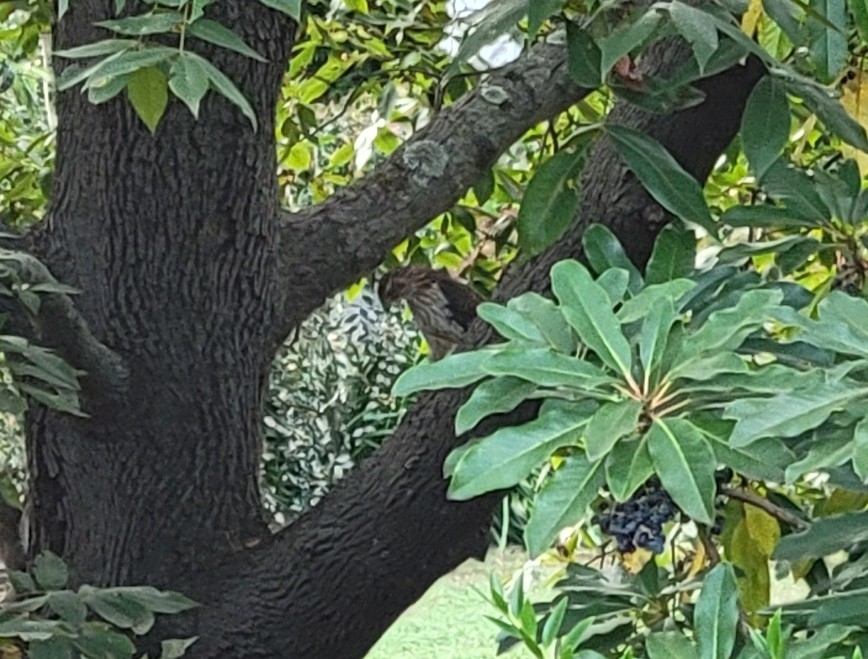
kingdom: Animalia
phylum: Chordata
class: Aves
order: Accipitriformes
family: Accipitridae
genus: Accipiter
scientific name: Accipiter cooperii
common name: Cooper's hawk
